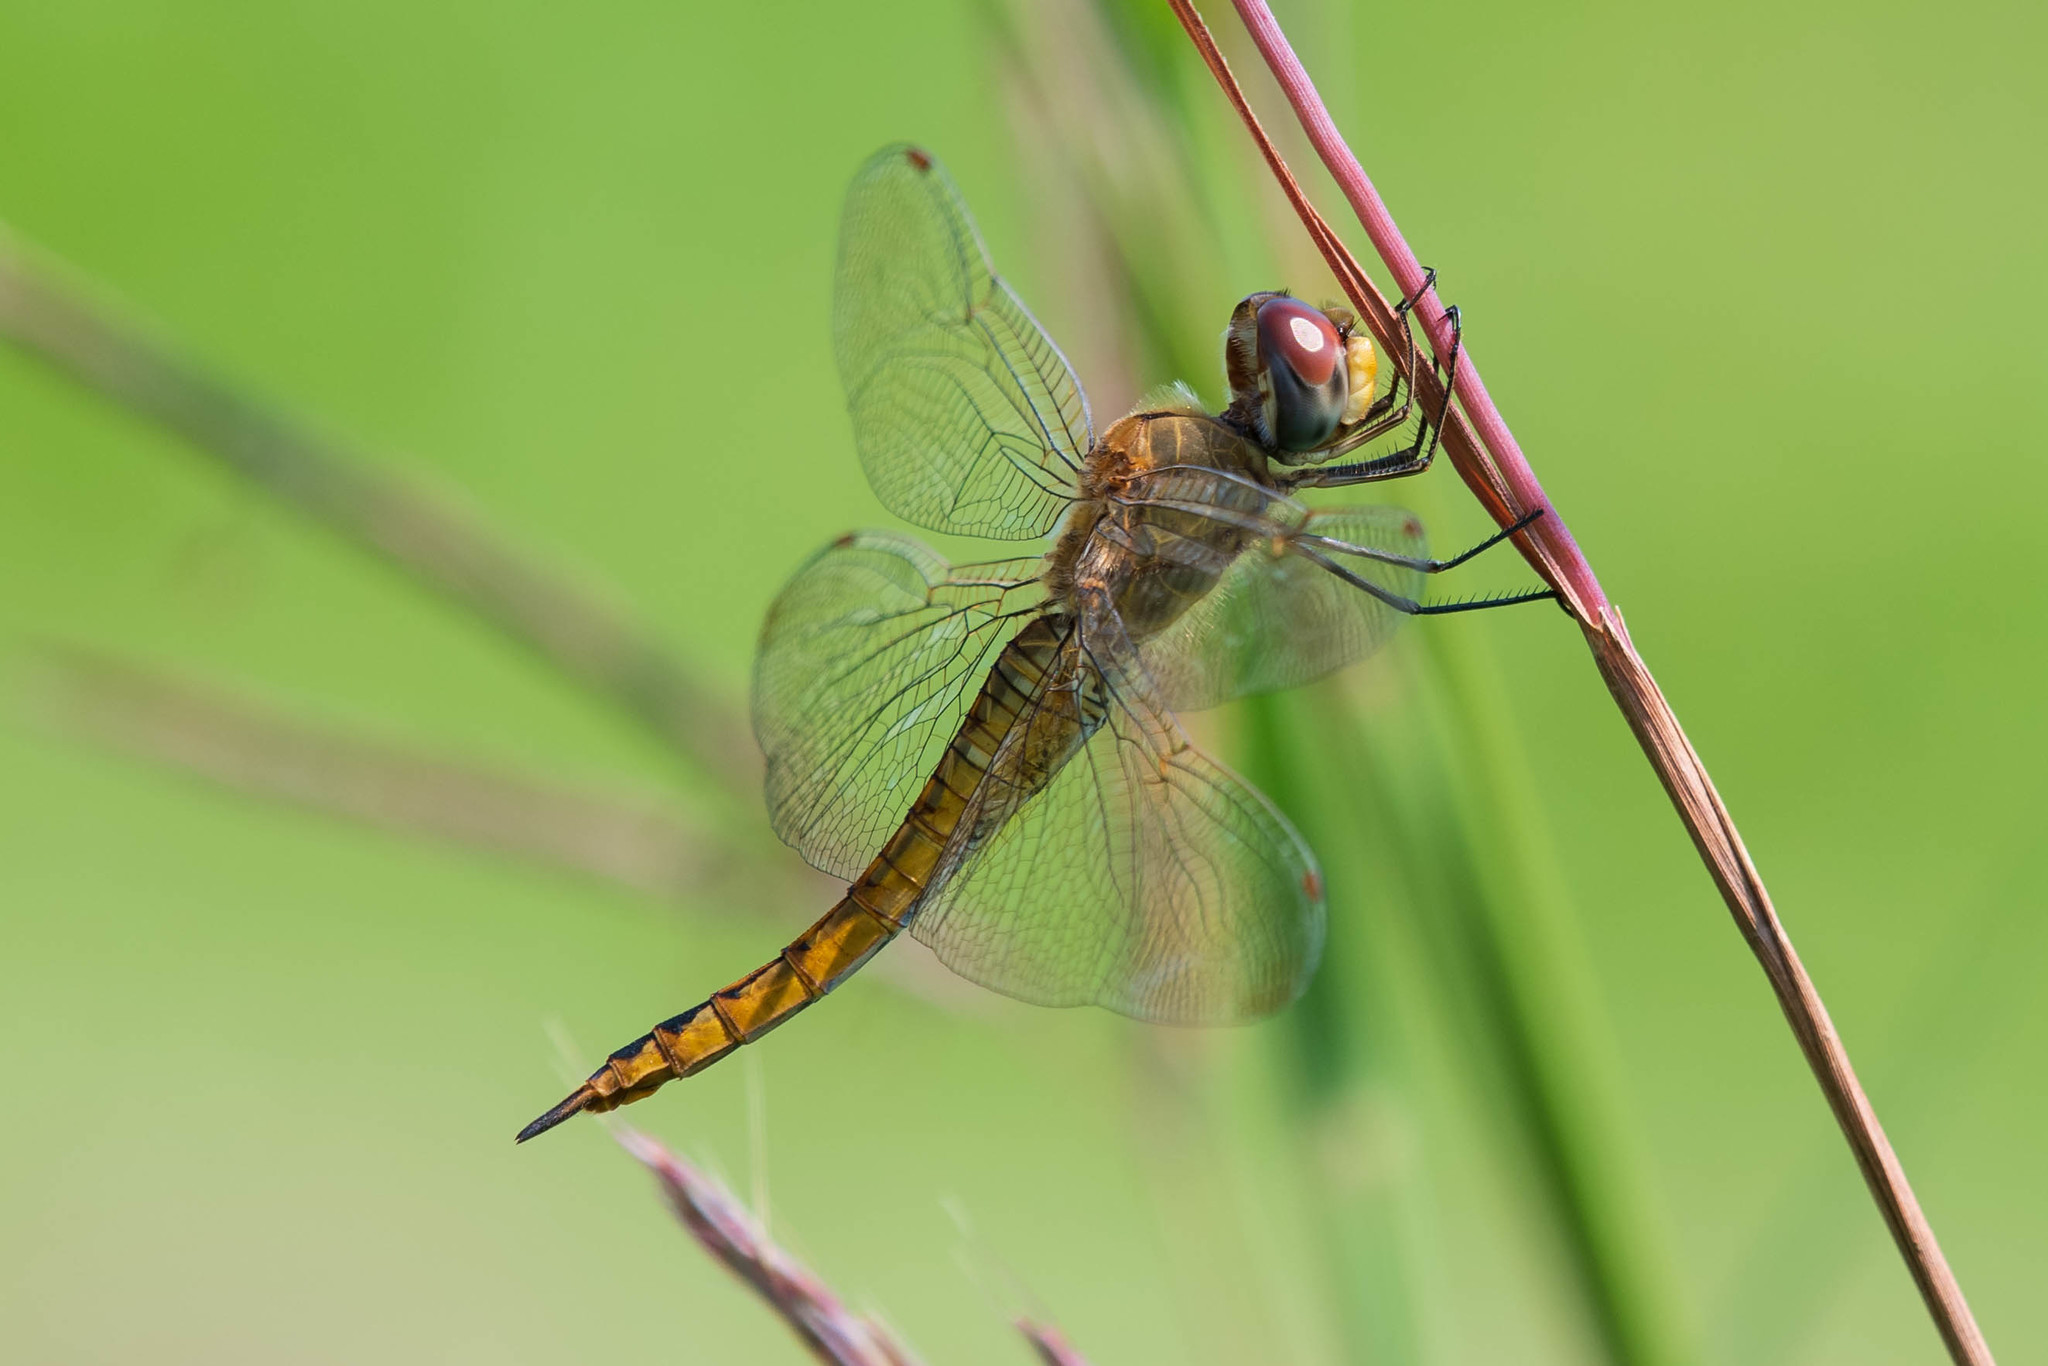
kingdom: Animalia
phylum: Arthropoda
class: Insecta
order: Odonata
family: Libellulidae
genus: Pantala
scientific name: Pantala flavescens
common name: Wandering glider
